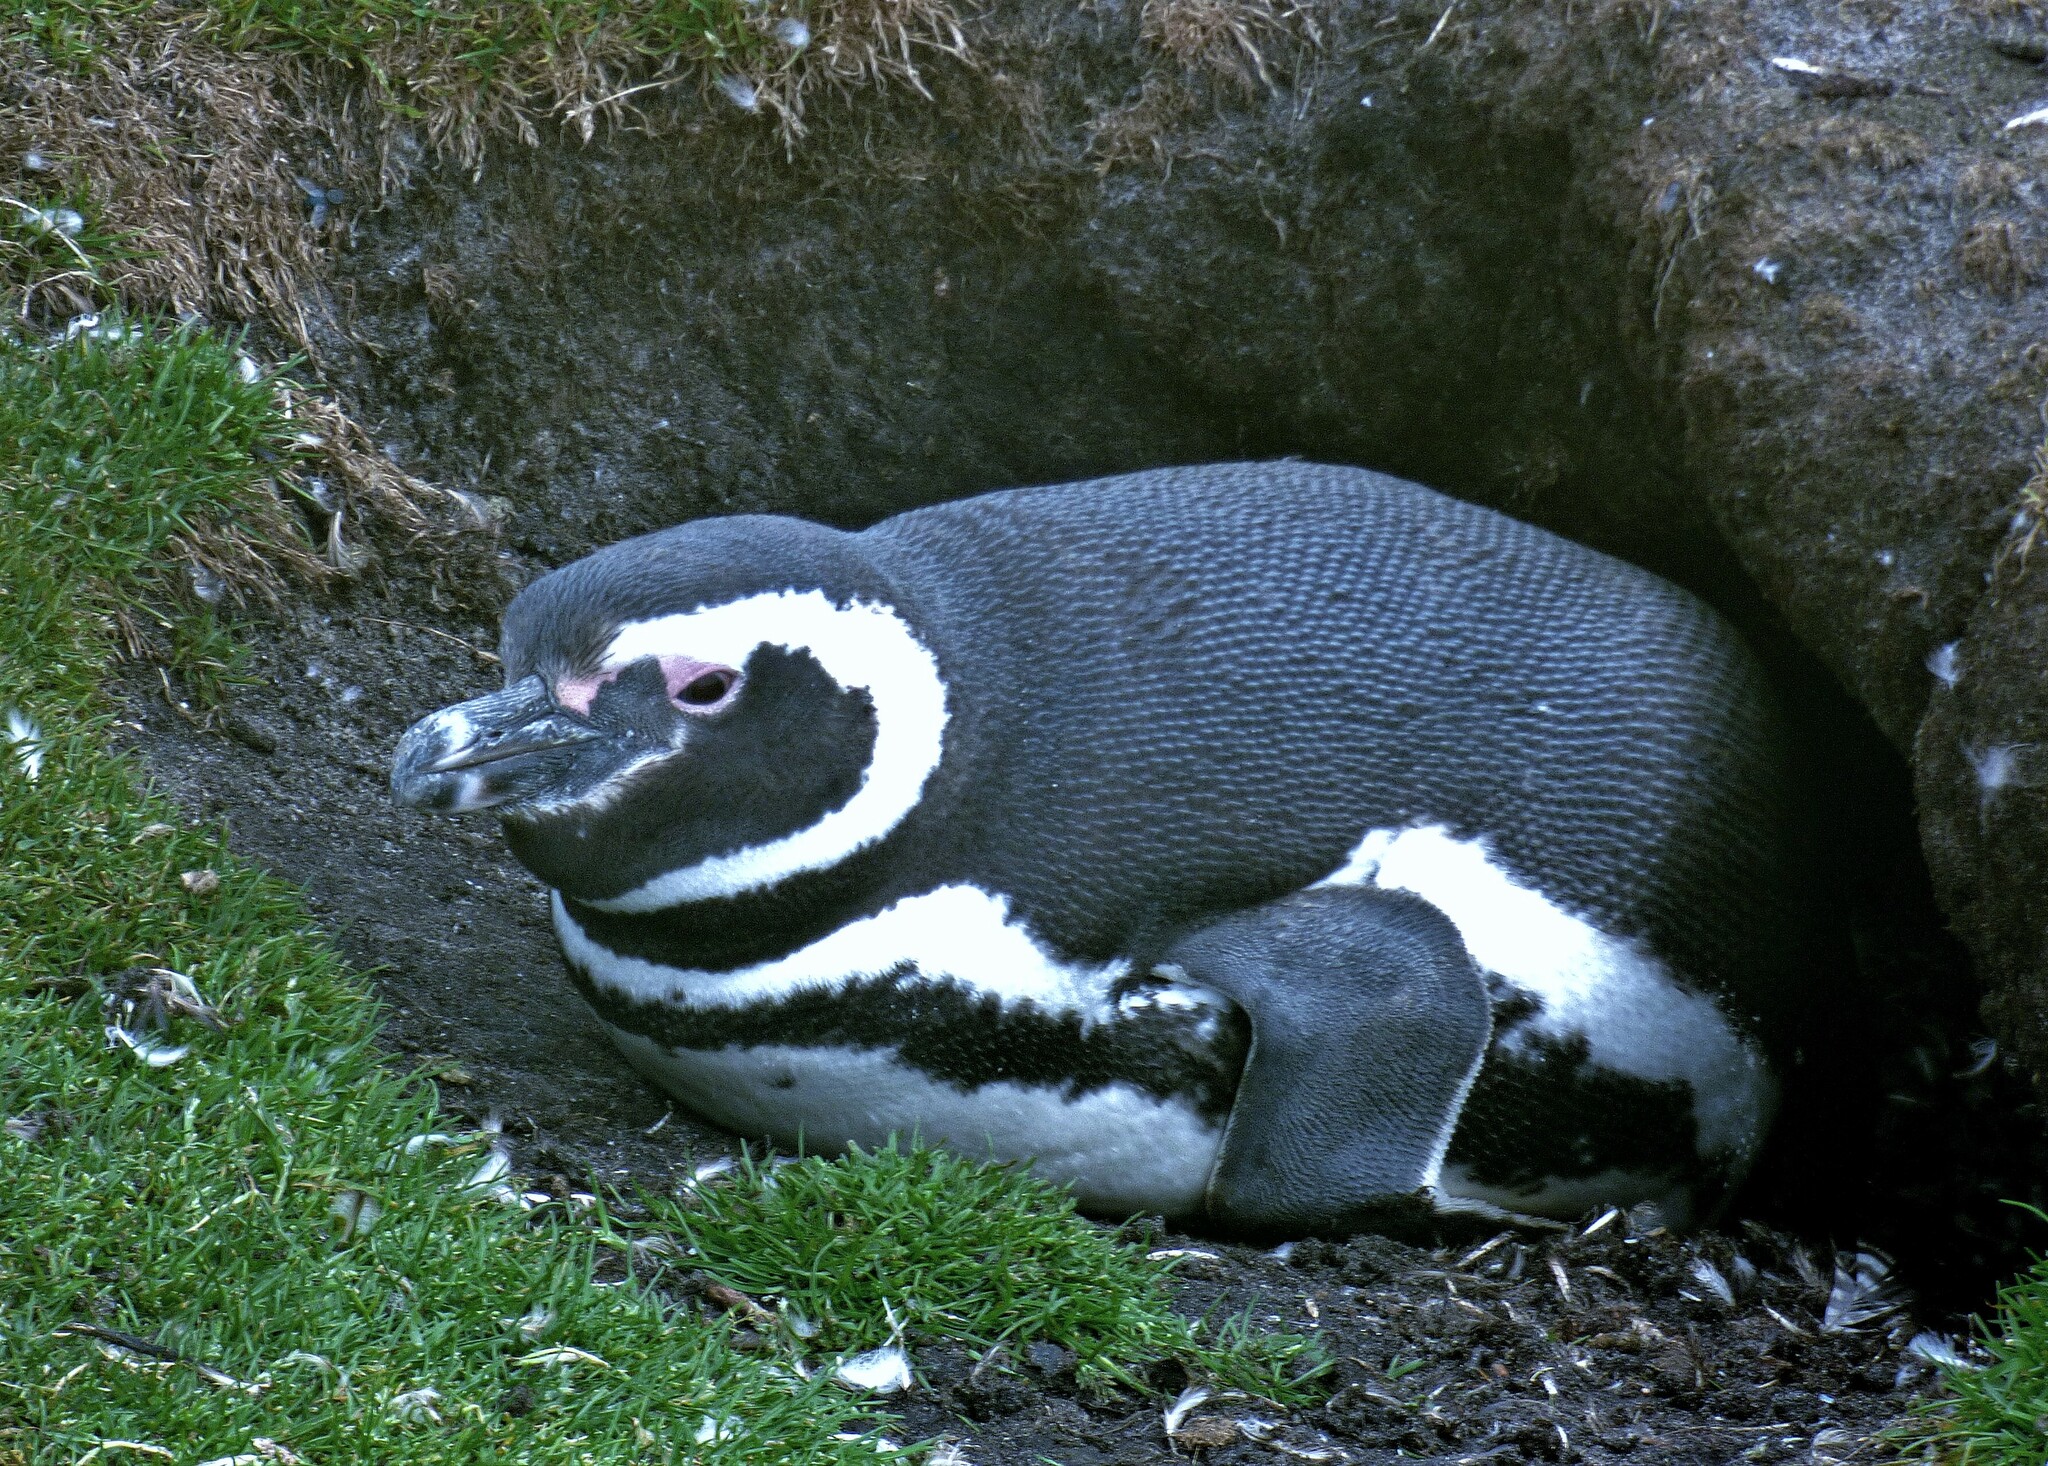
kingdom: Animalia
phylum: Chordata
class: Aves
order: Sphenisciformes
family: Spheniscidae
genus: Spheniscus
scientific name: Spheniscus magellanicus
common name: Magellanic penguin
